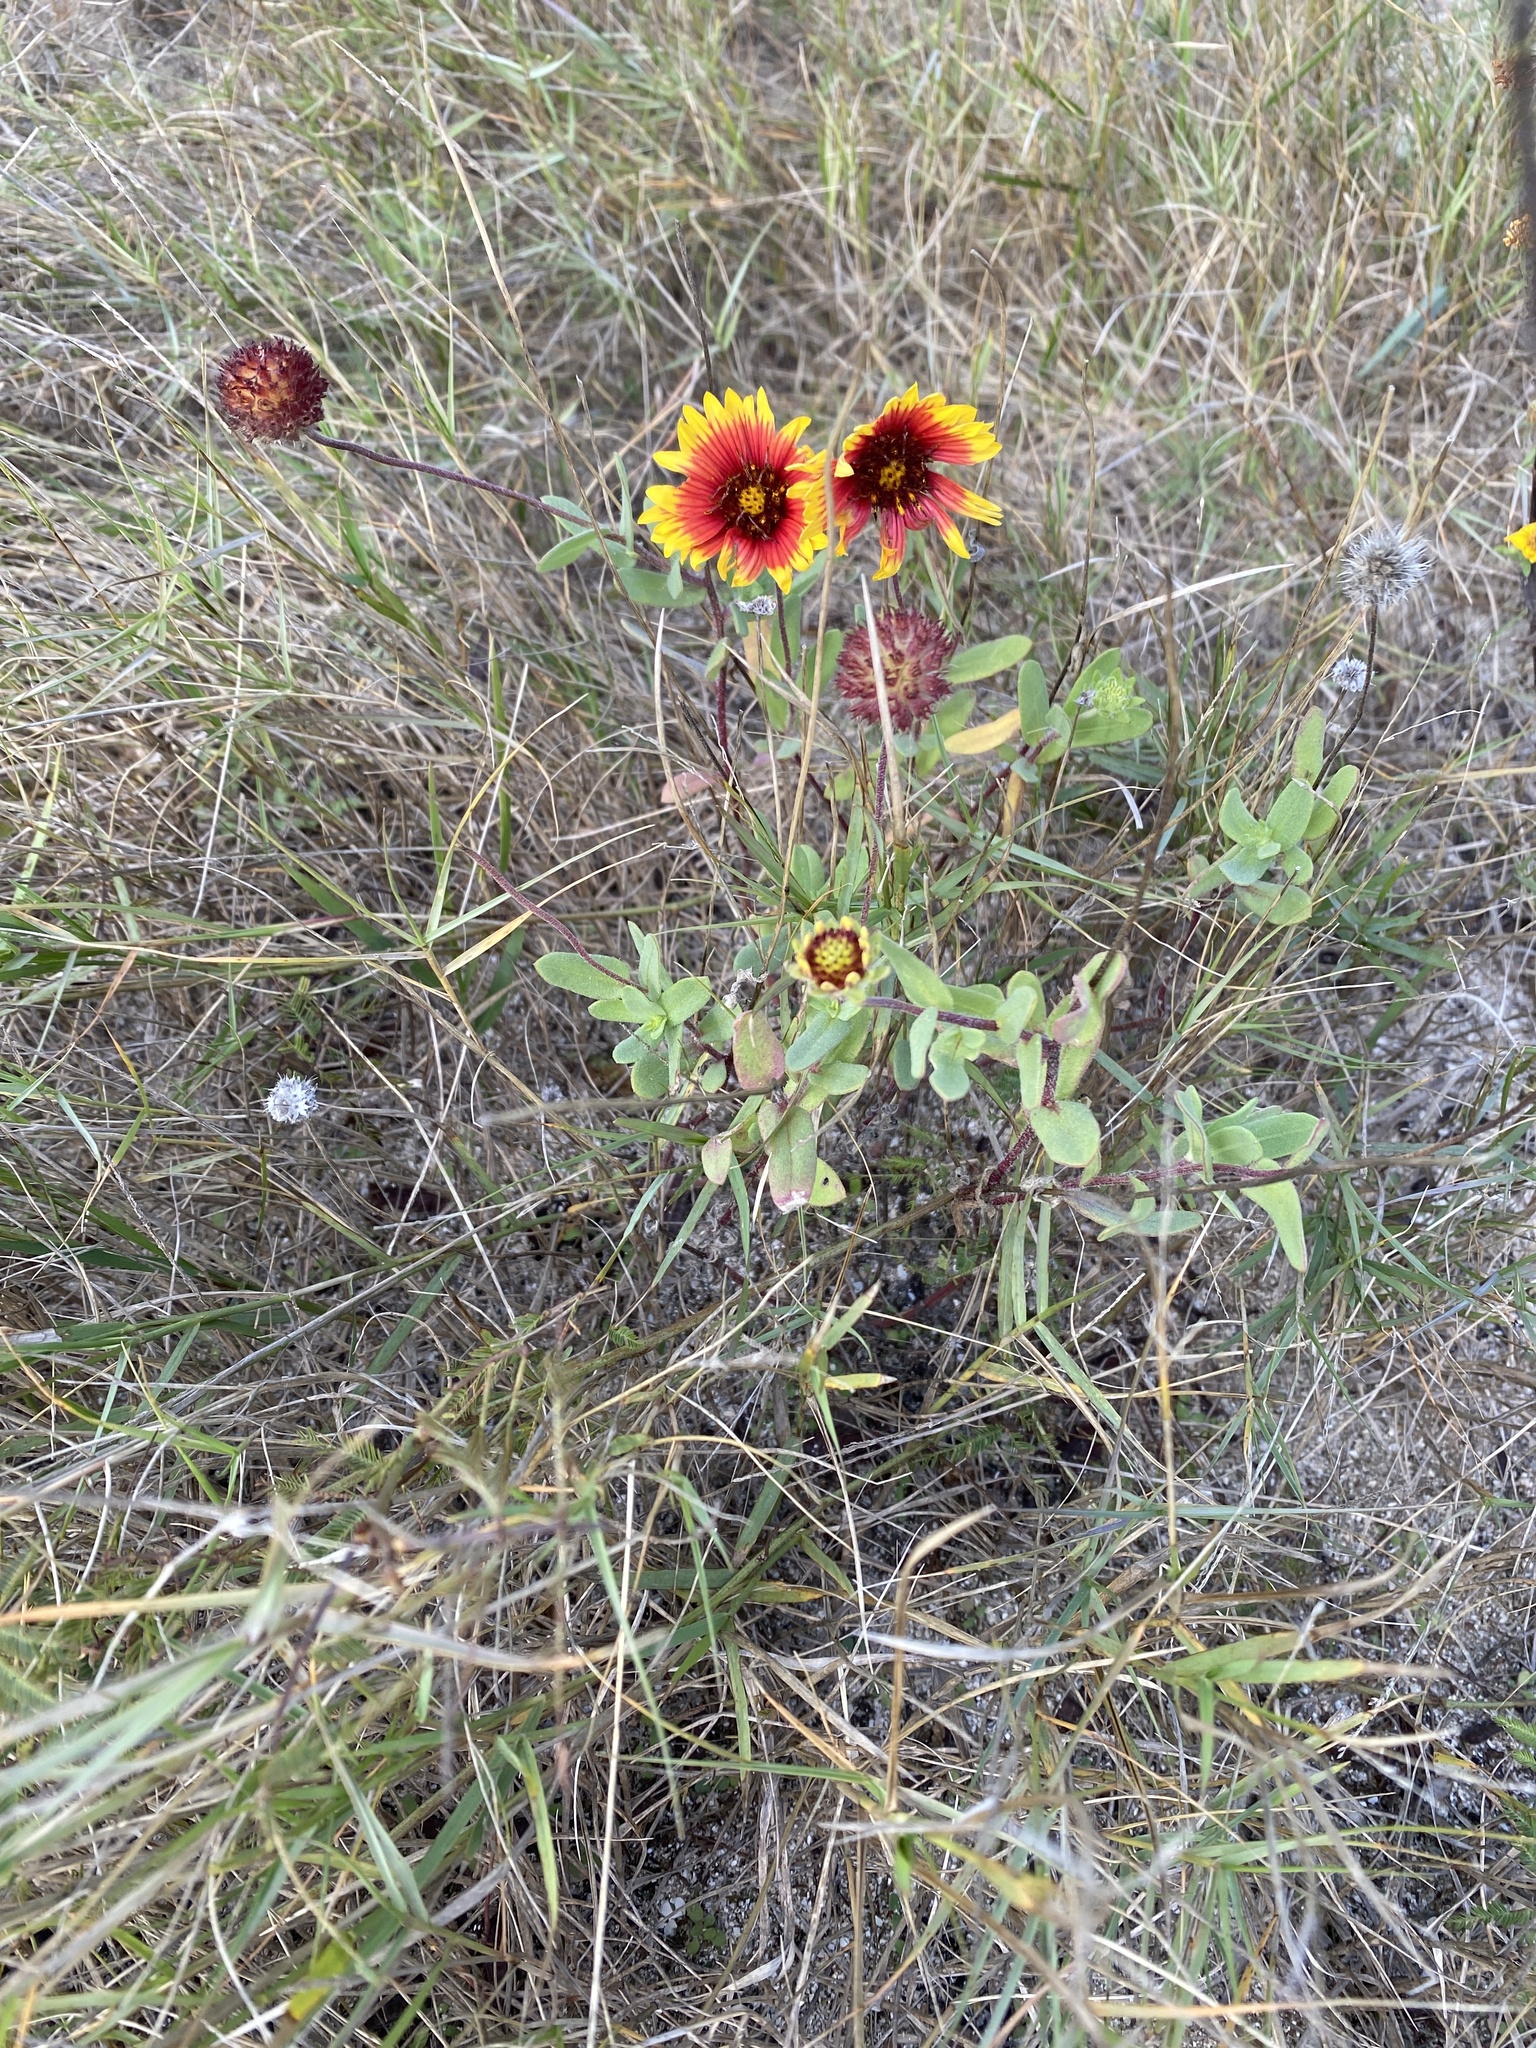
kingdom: Plantae
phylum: Tracheophyta
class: Magnoliopsida
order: Asterales
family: Asteraceae
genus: Gaillardia
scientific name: Gaillardia pulchella
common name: Firewheel
